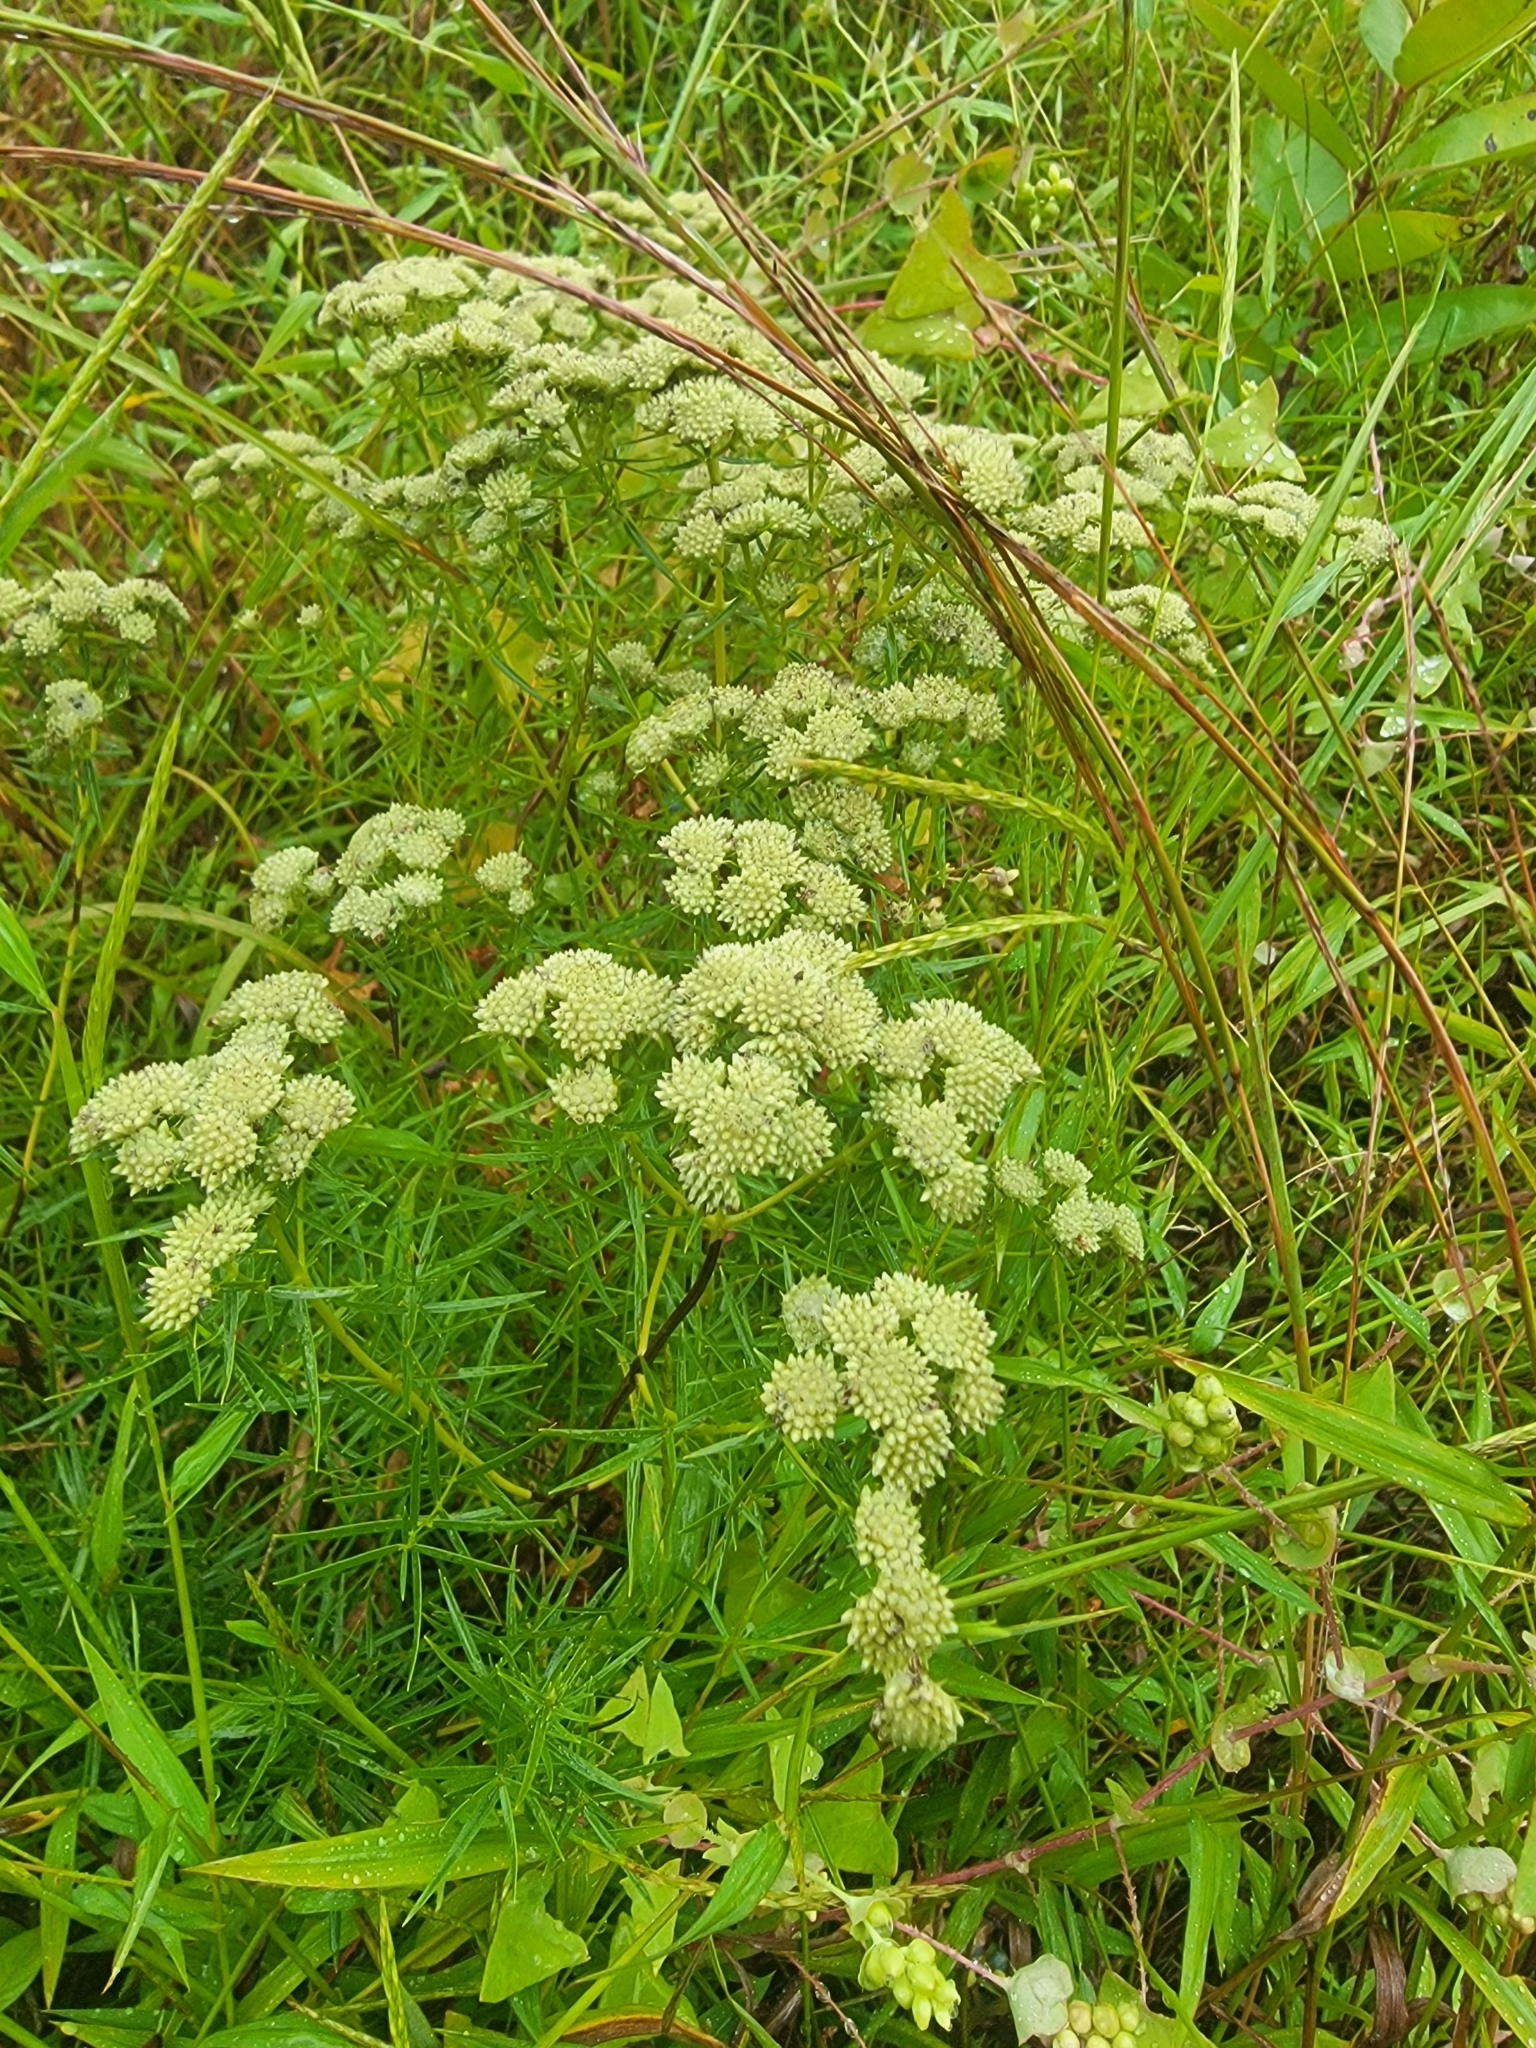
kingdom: Plantae
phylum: Tracheophyta
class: Magnoliopsida
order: Lamiales
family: Lamiaceae
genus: Pycnanthemum
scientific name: Pycnanthemum tenuifolium
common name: Narrow-leaf mountain-mint
